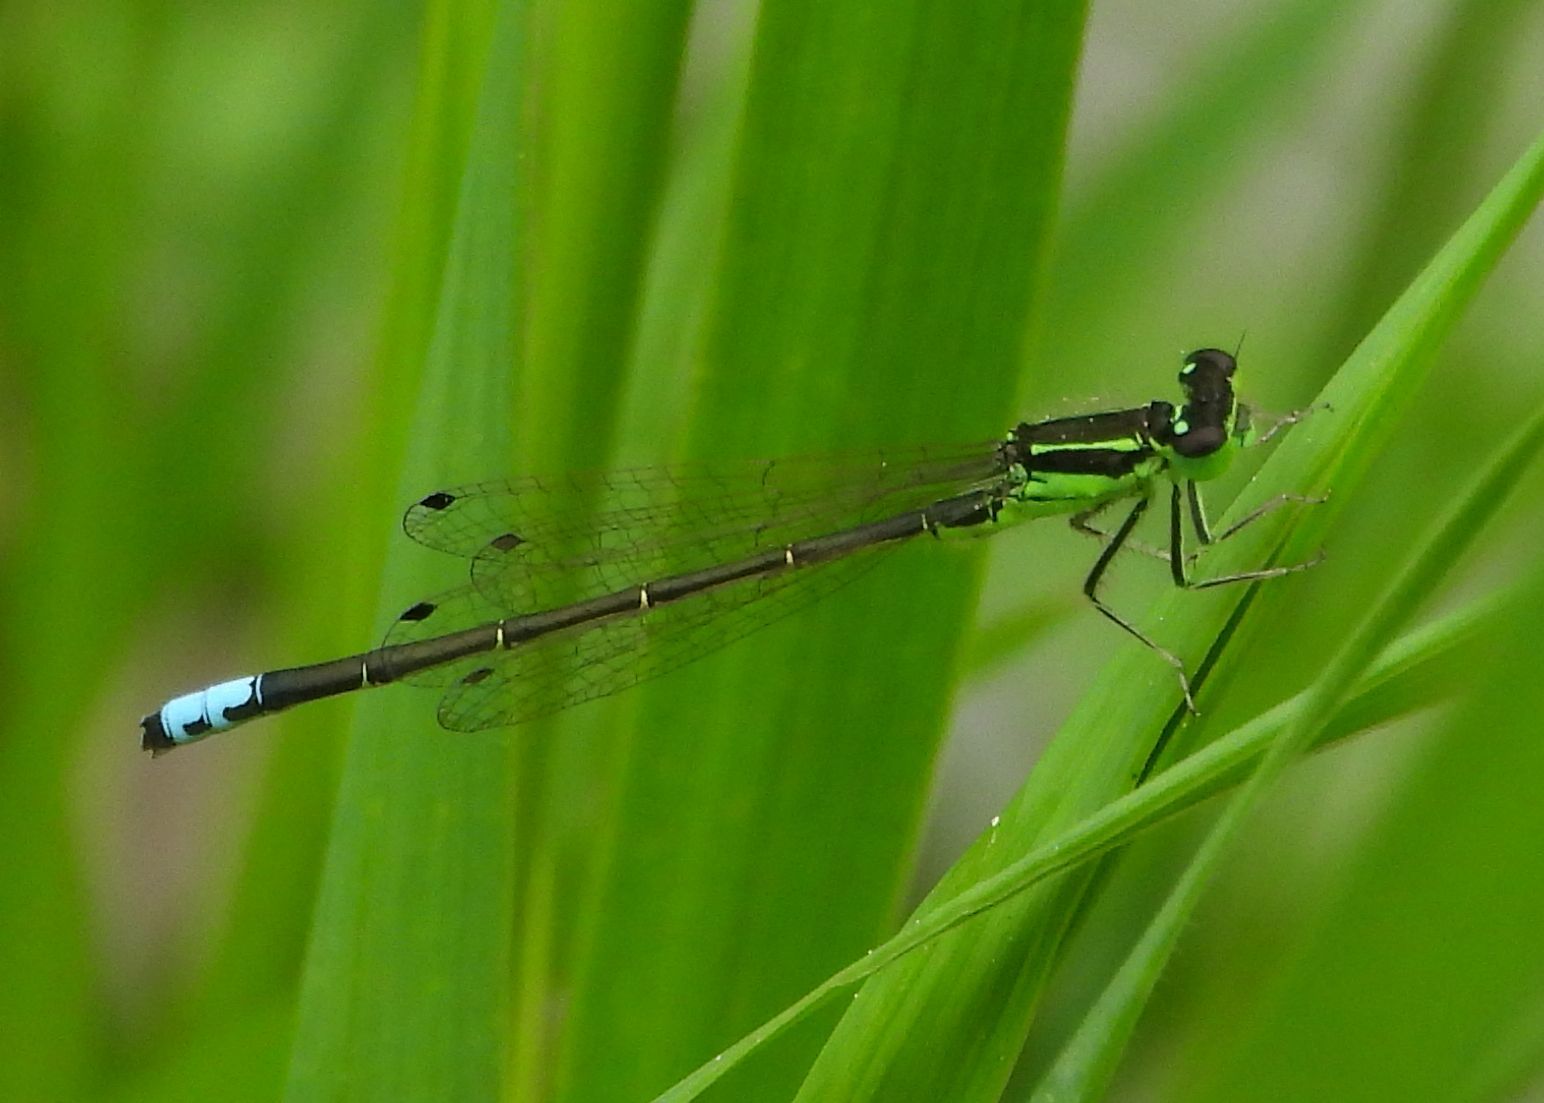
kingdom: Animalia
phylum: Arthropoda
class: Insecta
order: Odonata
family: Coenagrionidae
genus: Ischnura
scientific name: Ischnura verticalis
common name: Eastern forktail
